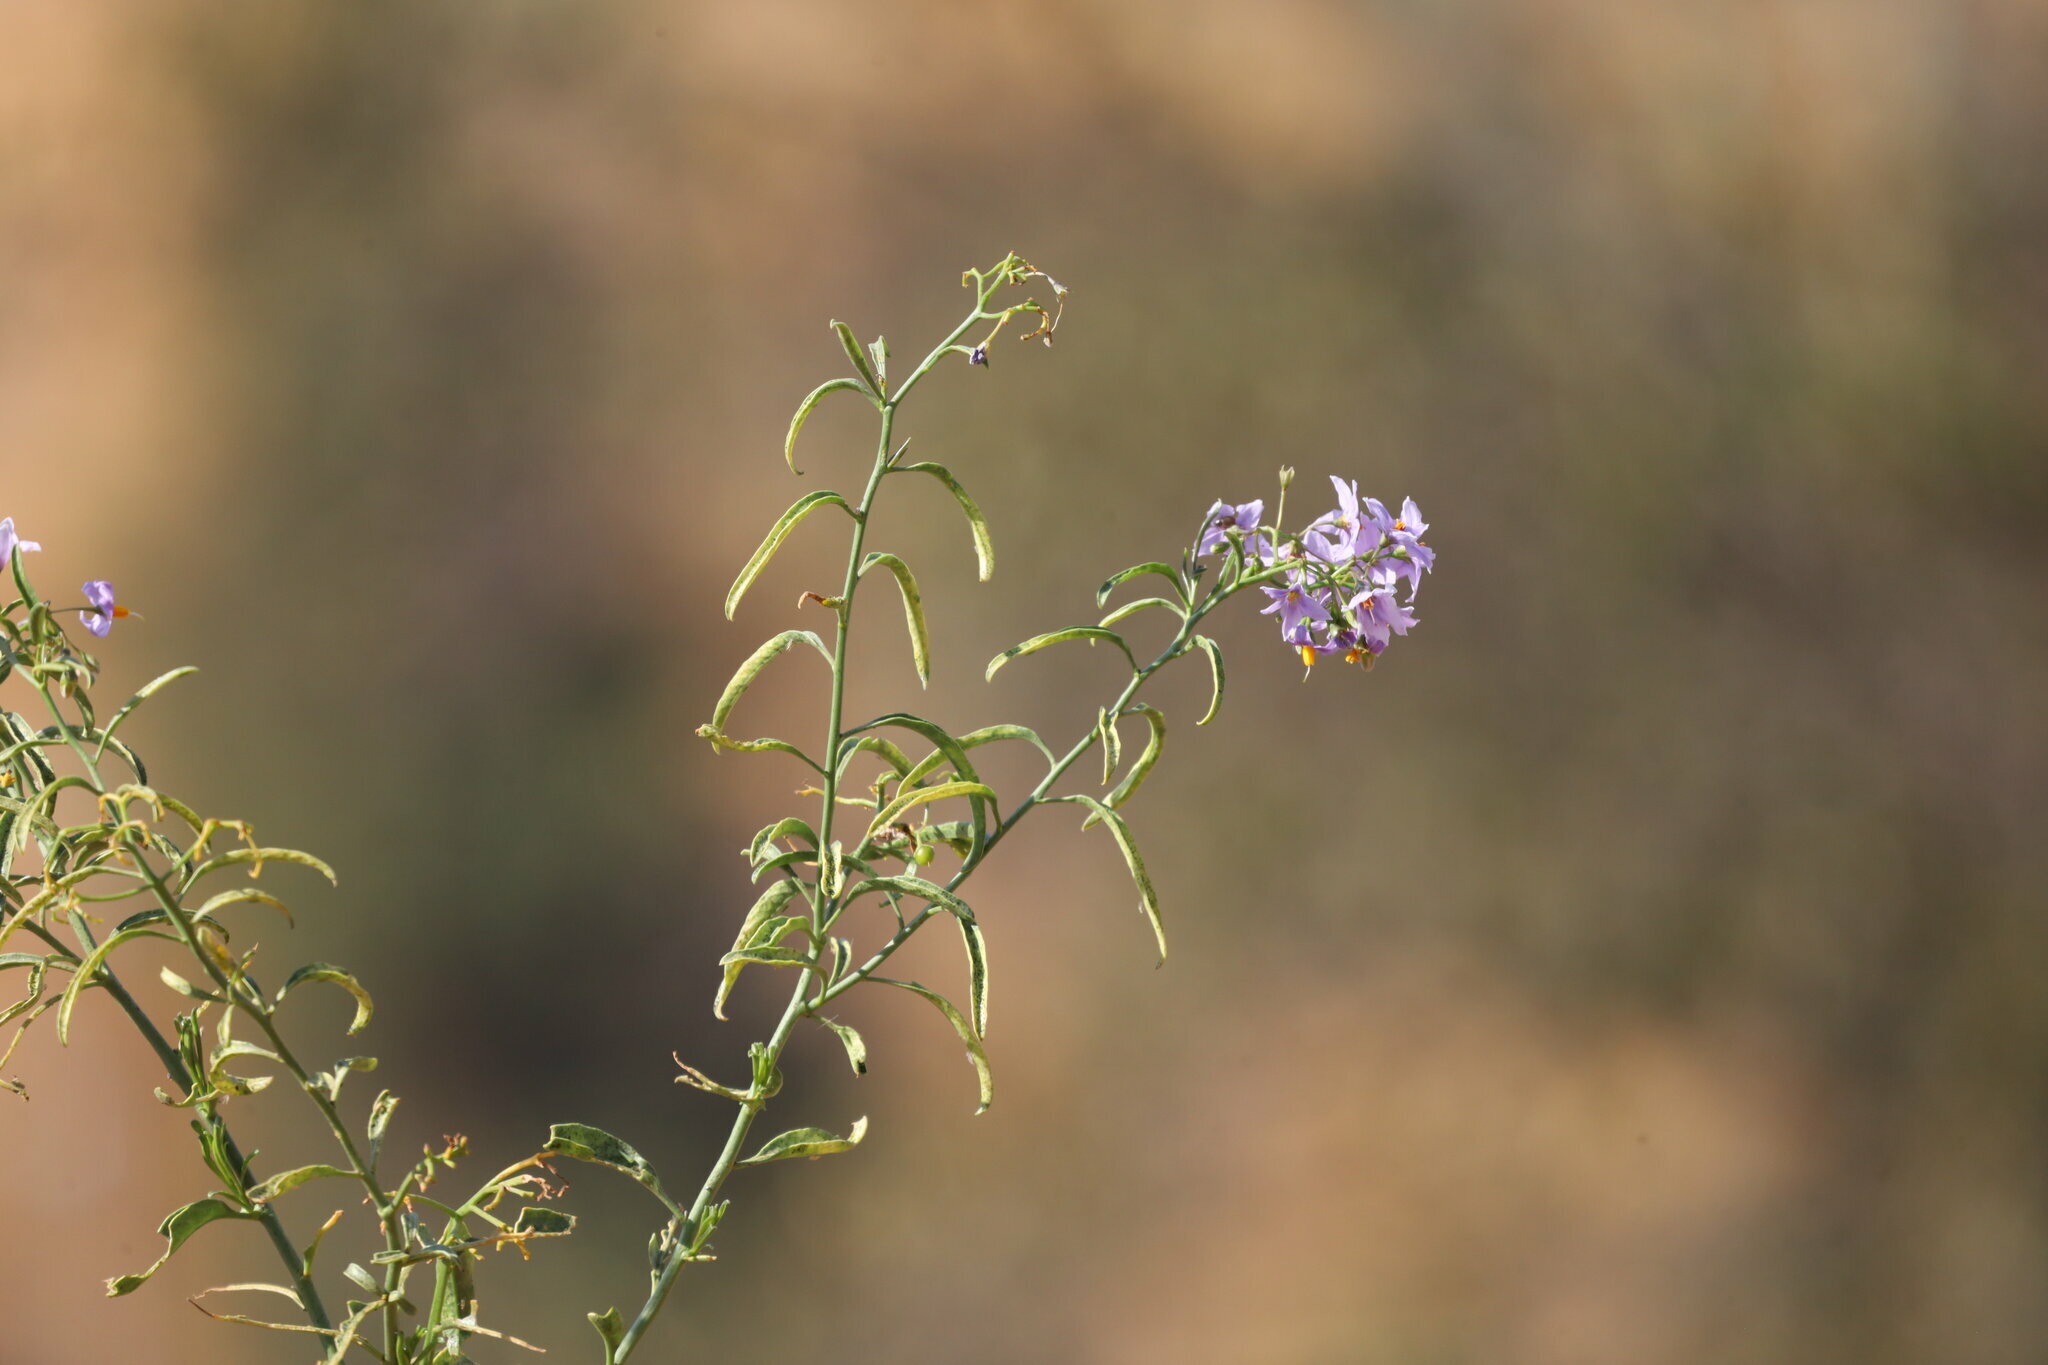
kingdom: Plantae
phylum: Tracheophyta
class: Magnoliopsida
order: Solanales
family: Solanaceae
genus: Solanum
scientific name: Solanum crispum
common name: Chilean nightshade
